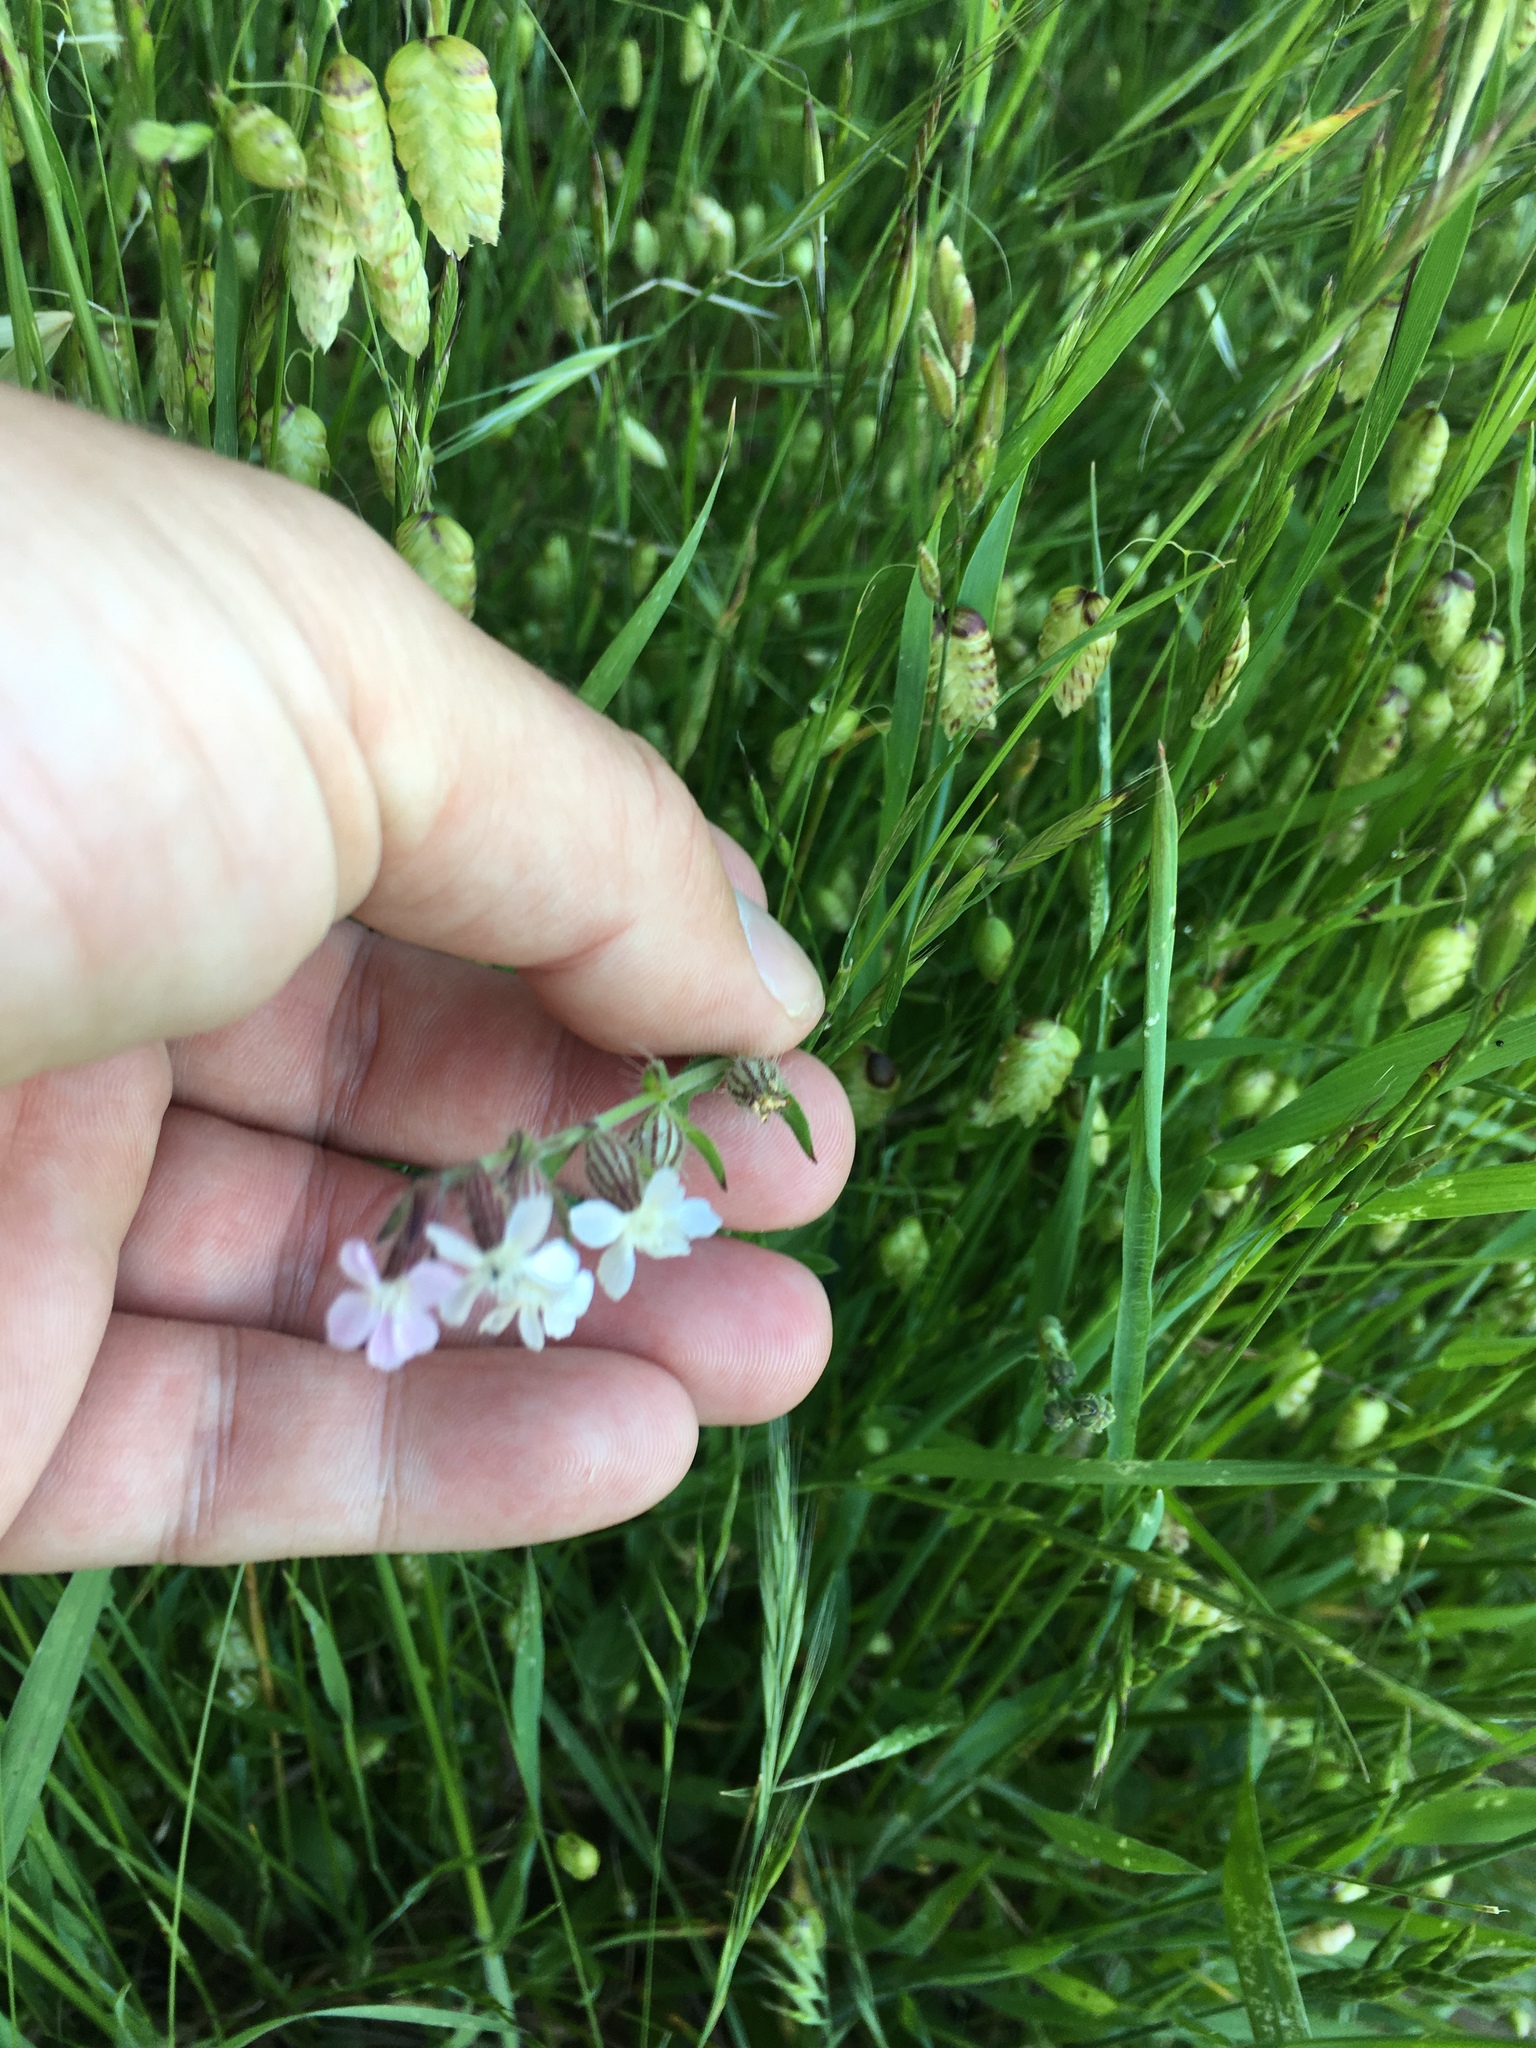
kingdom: Plantae
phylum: Tracheophyta
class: Magnoliopsida
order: Caryophyllales
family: Caryophyllaceae
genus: Silene
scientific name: Silene gallica
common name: Small-flowered catchfly
